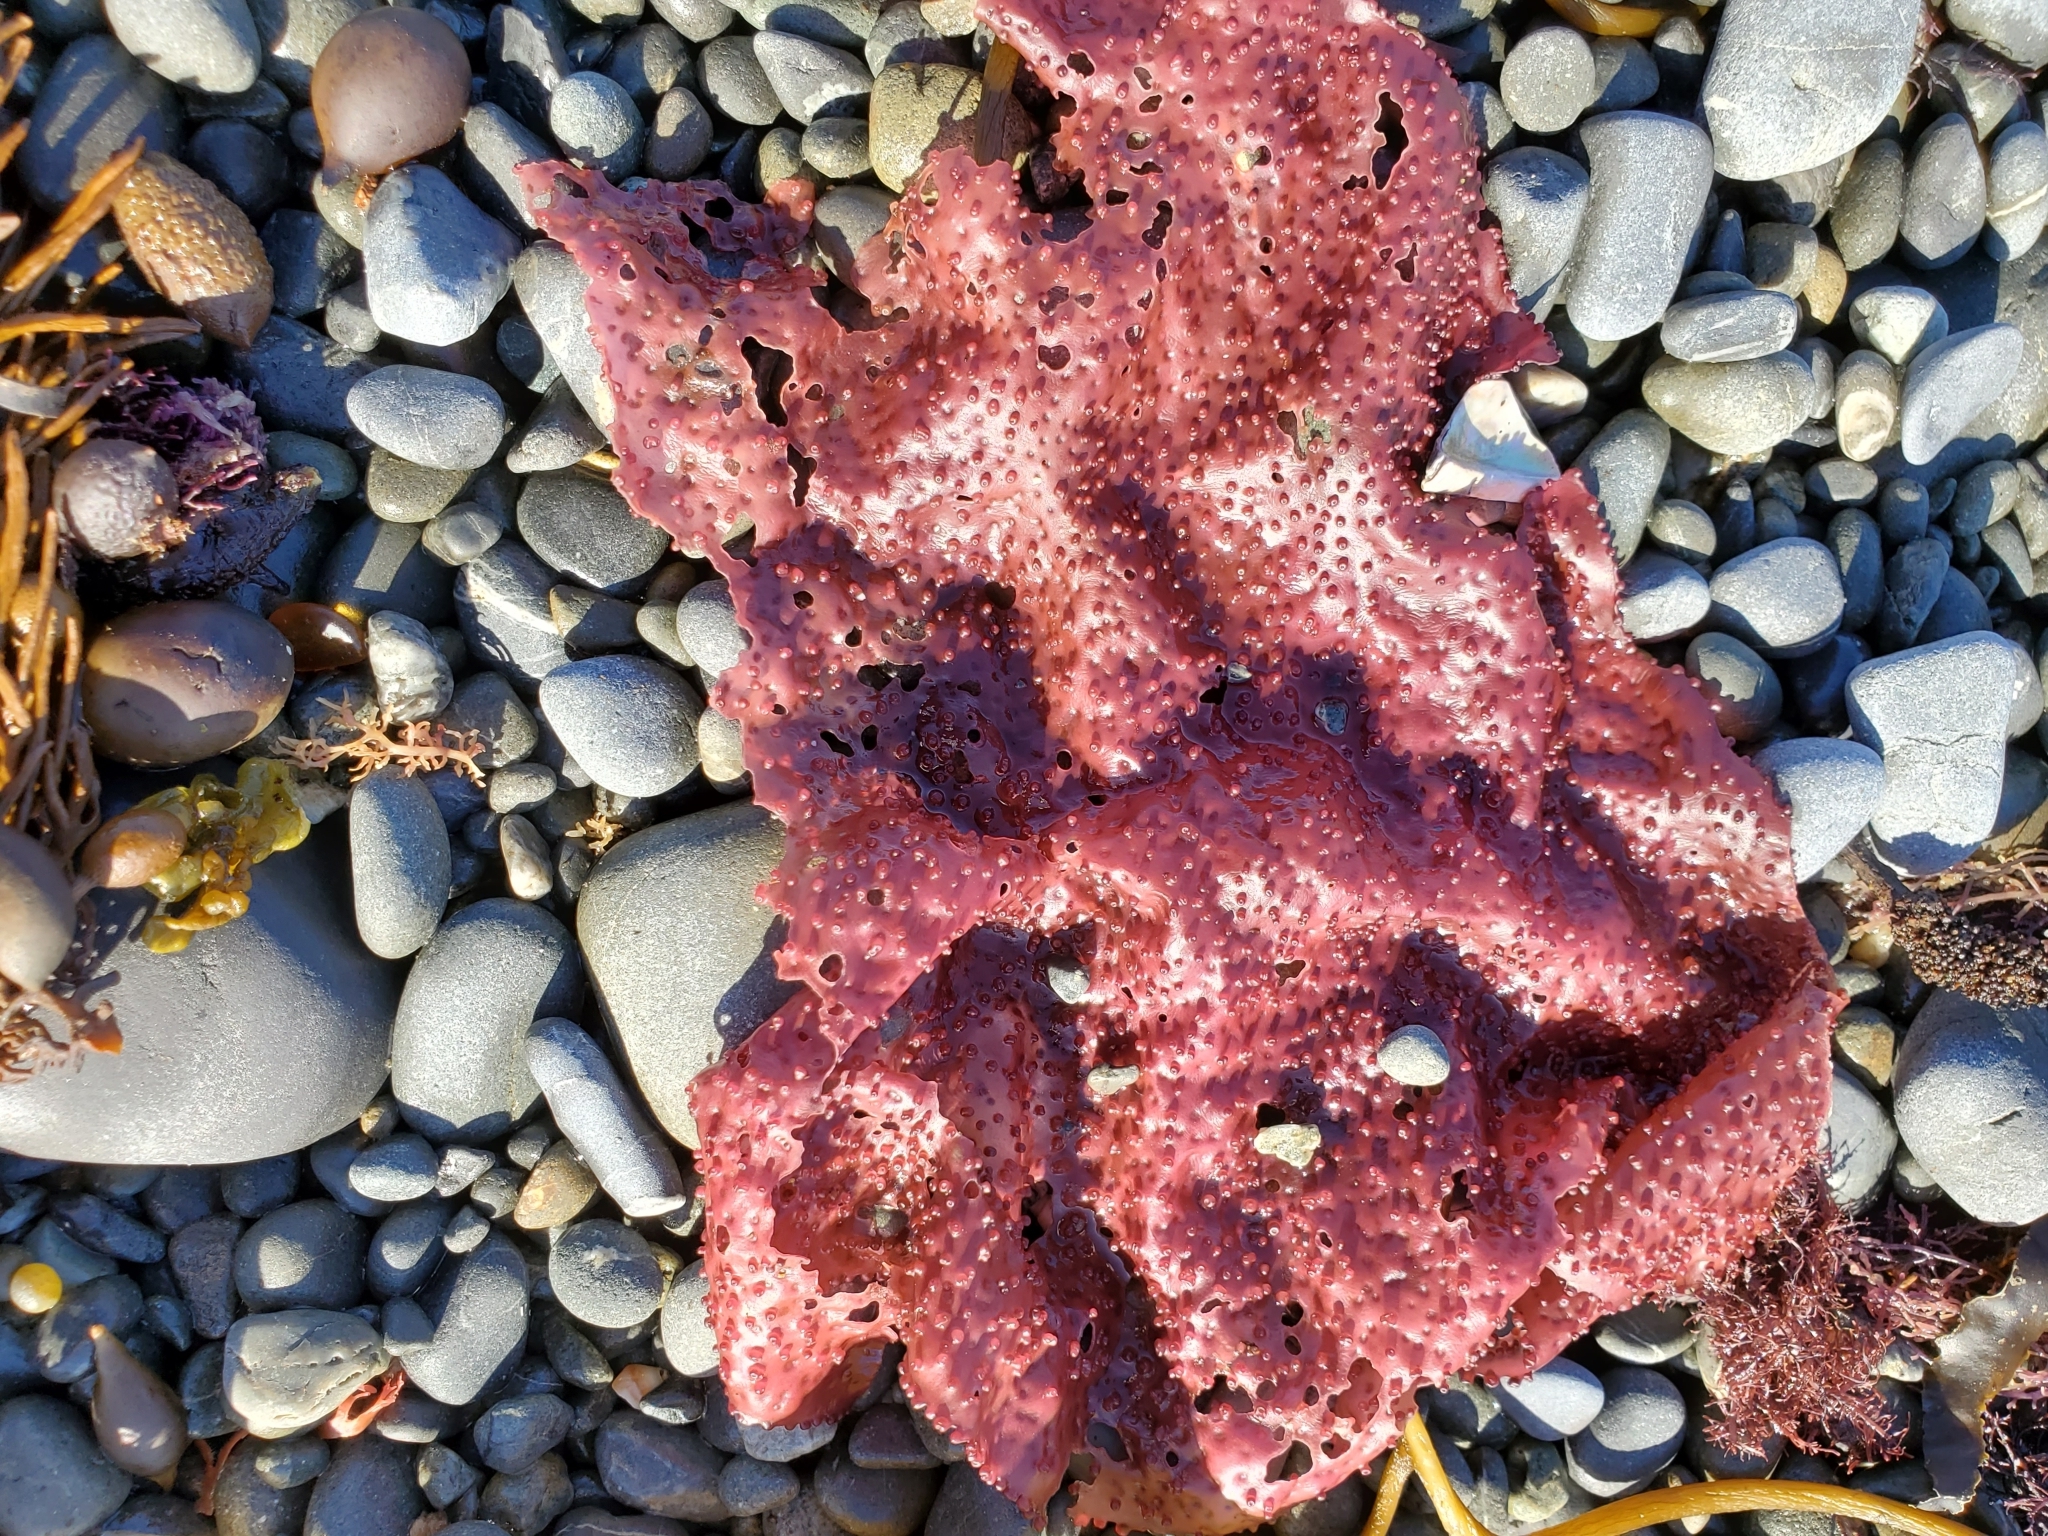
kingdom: Plantae
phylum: Rhodophyta
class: Florideophyceae
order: Gigartinales
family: Gigartinaceae
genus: Sarcothalia
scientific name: Sarcothalia
